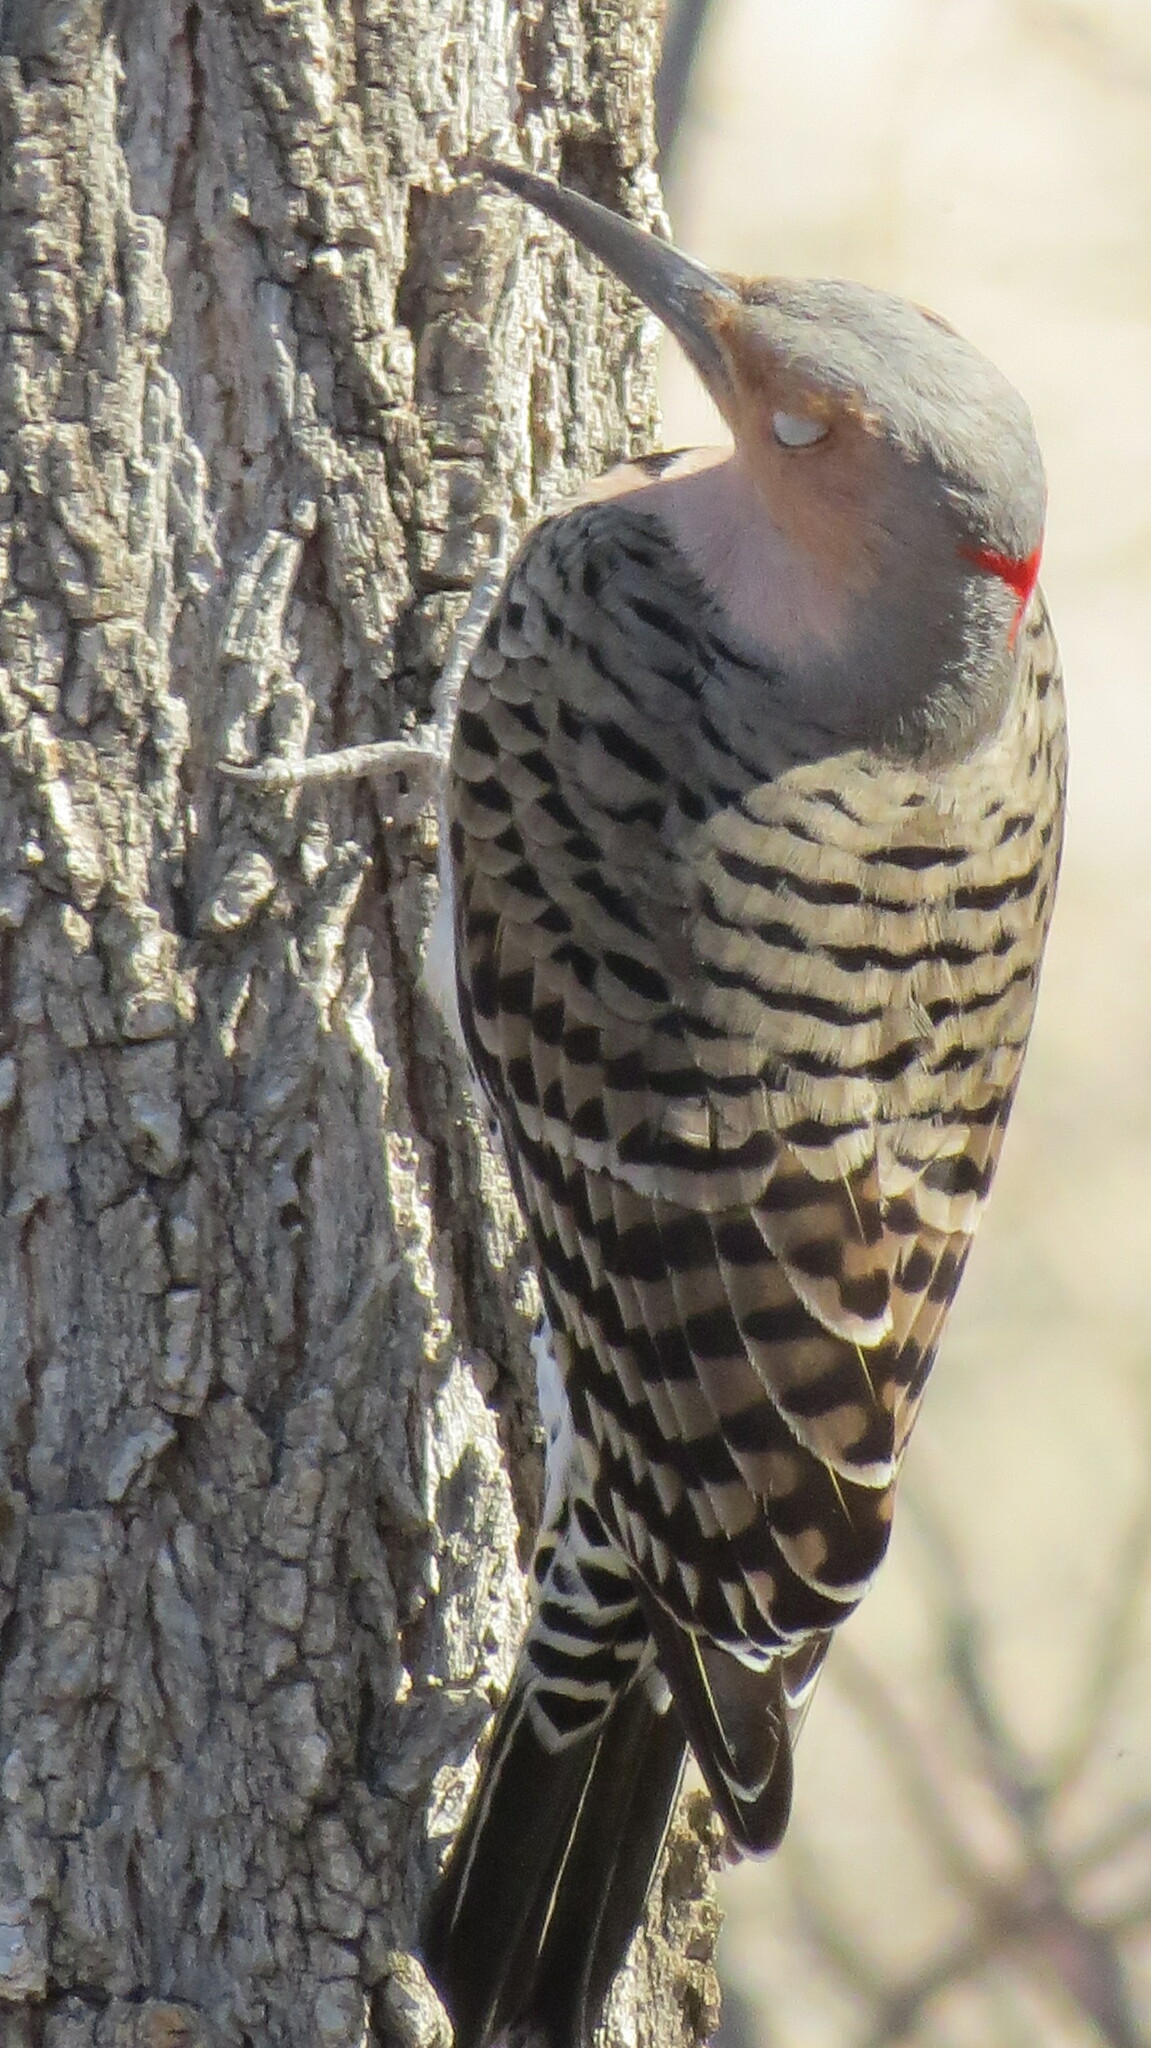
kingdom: Animalia
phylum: Chordata
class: Aves
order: Piciformes
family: Picidae
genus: Colaptes
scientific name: Colaptes auratus
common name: Northern flicker
